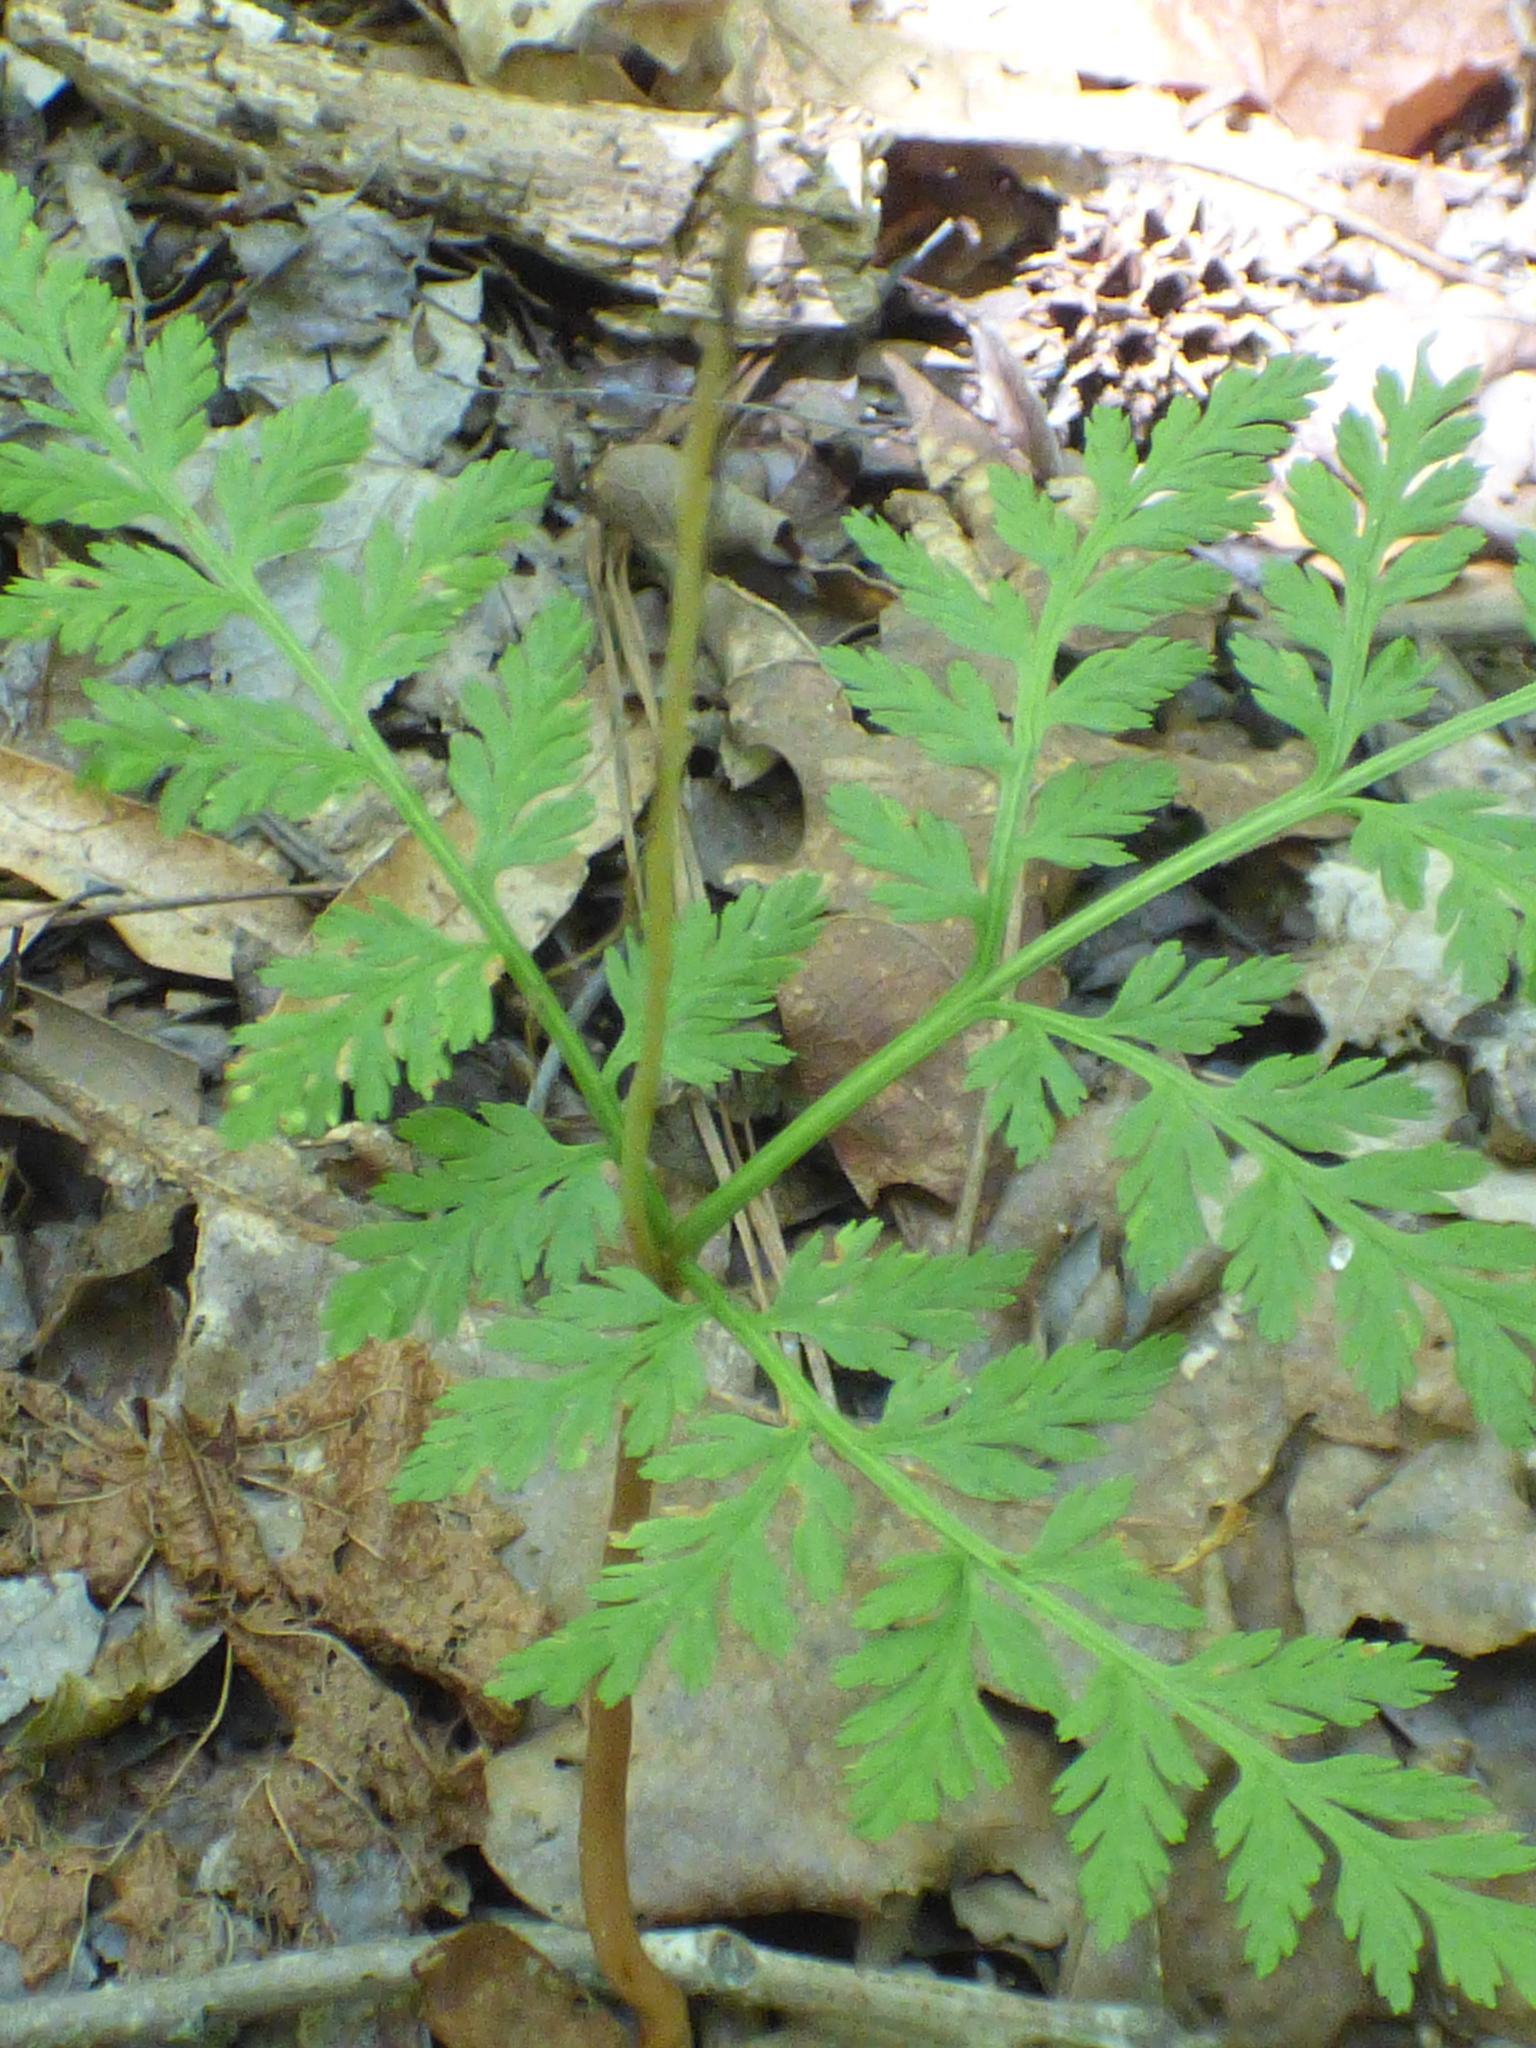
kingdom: Plantae
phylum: Tracheophyta
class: Polypodiopsida
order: Ophioglossales
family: Ophioglossaceae
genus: Botrypus
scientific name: Botrypus virginianus
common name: Common grapefern
